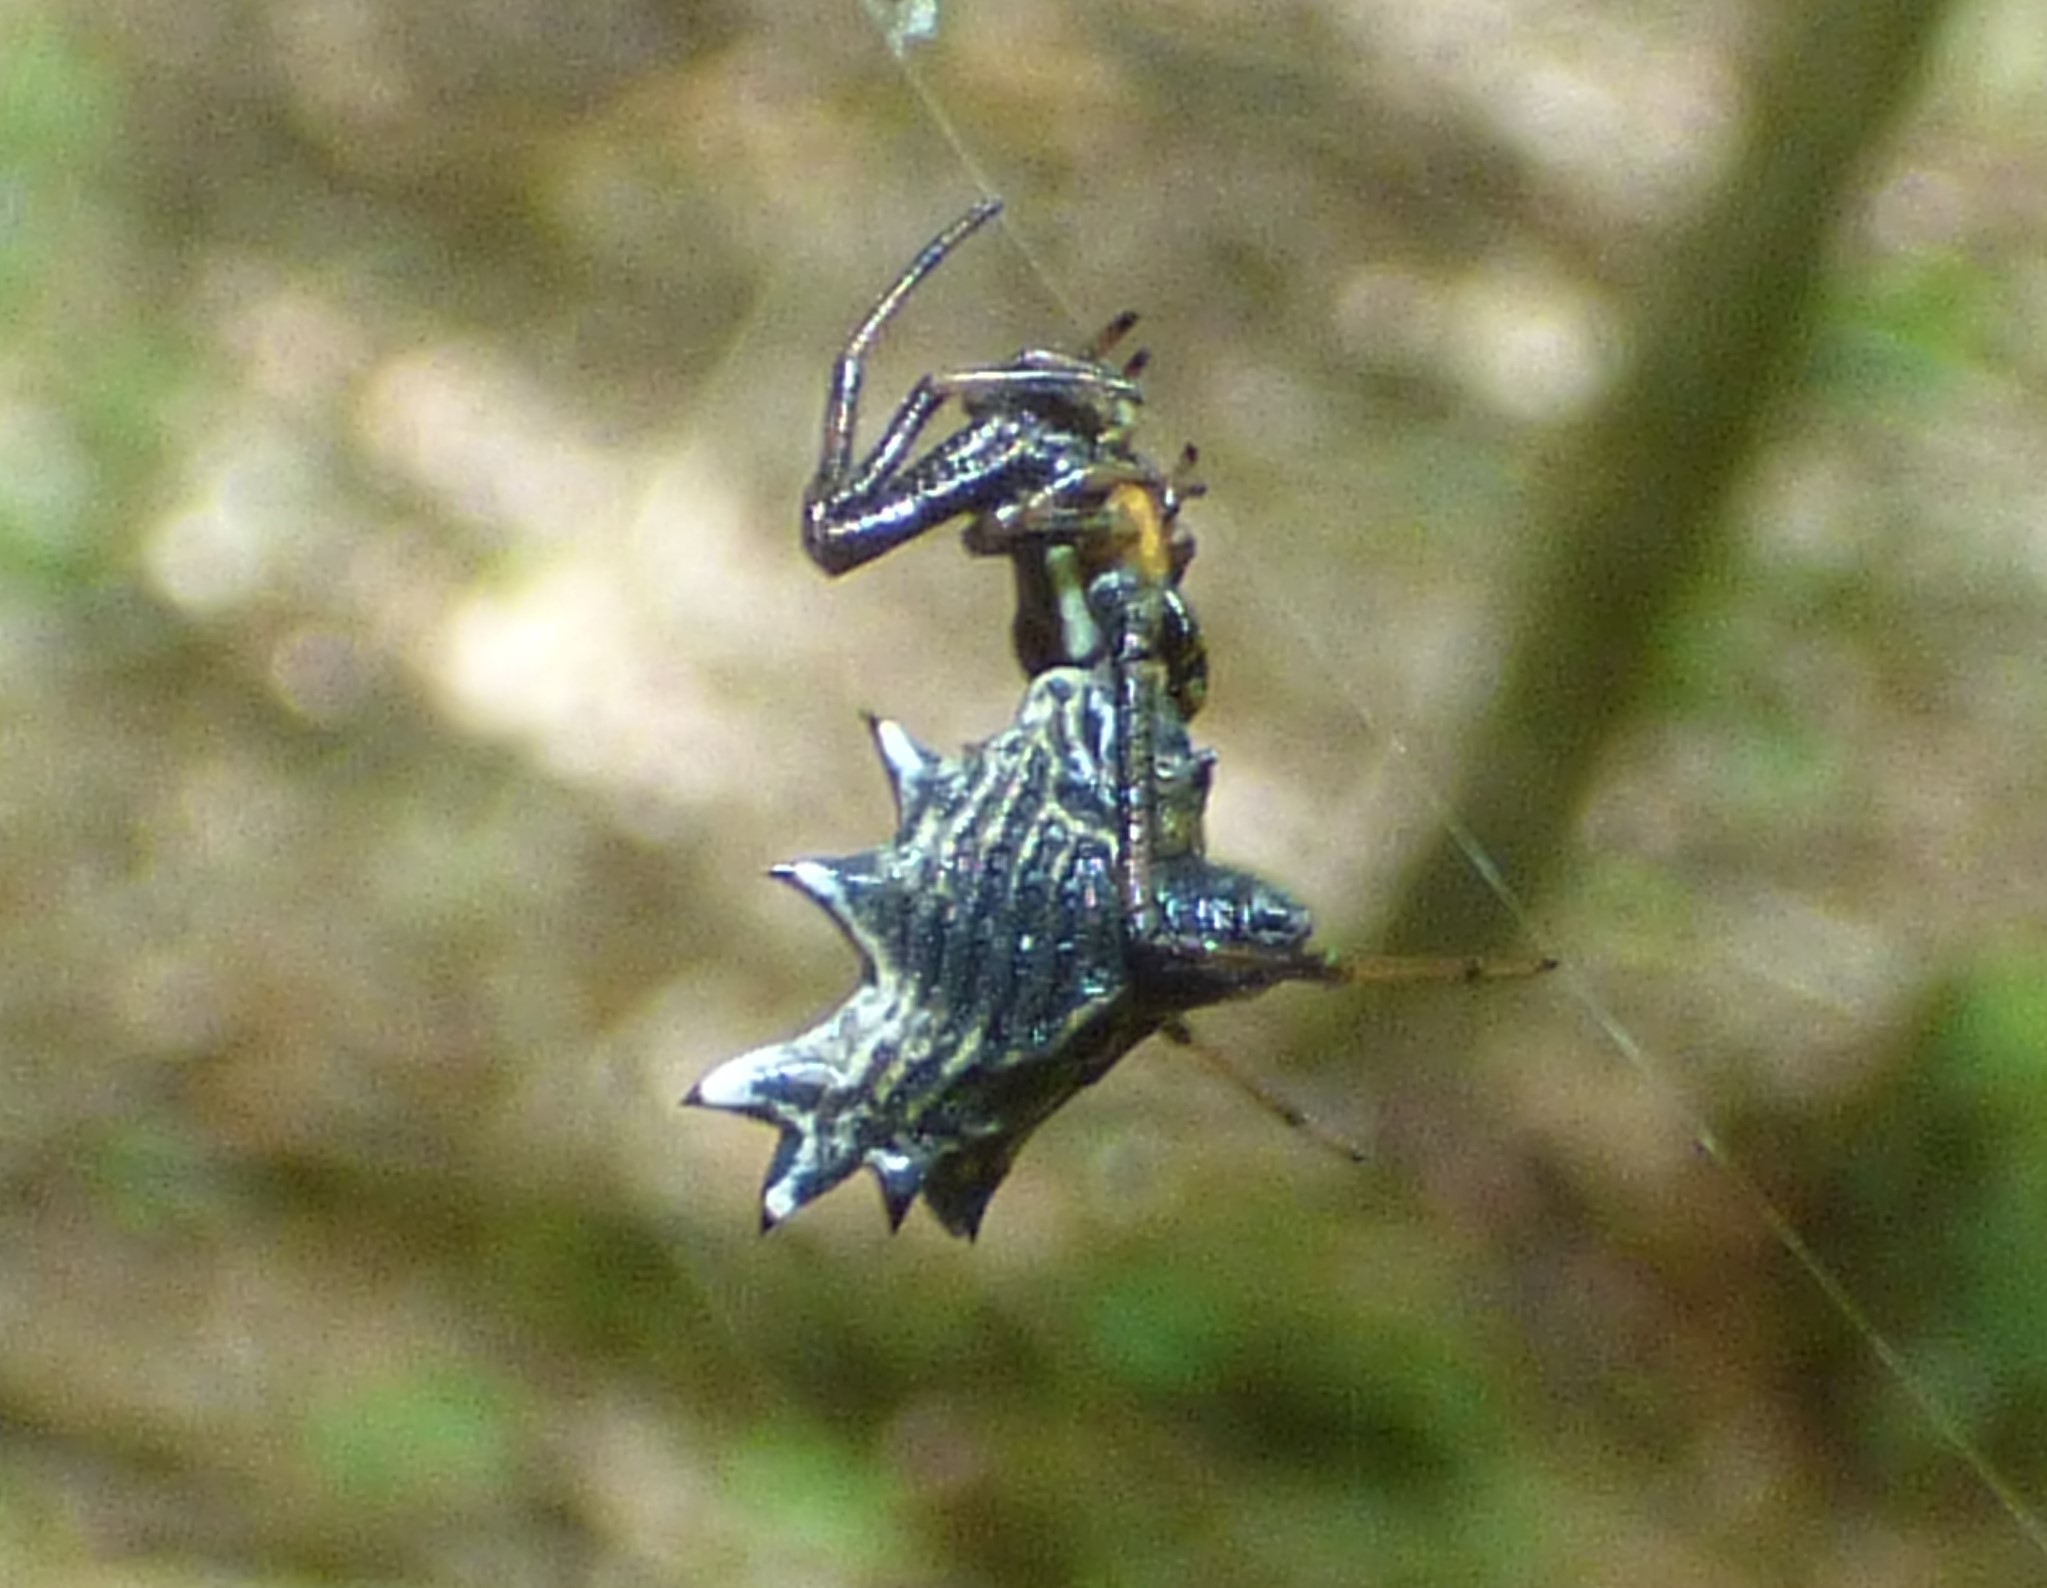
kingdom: Animalia
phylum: Arthropoda
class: Arachnida
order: Araneae
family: Araneidae
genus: Micrathena
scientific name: Micrathena gracilis
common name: Orb weavers
